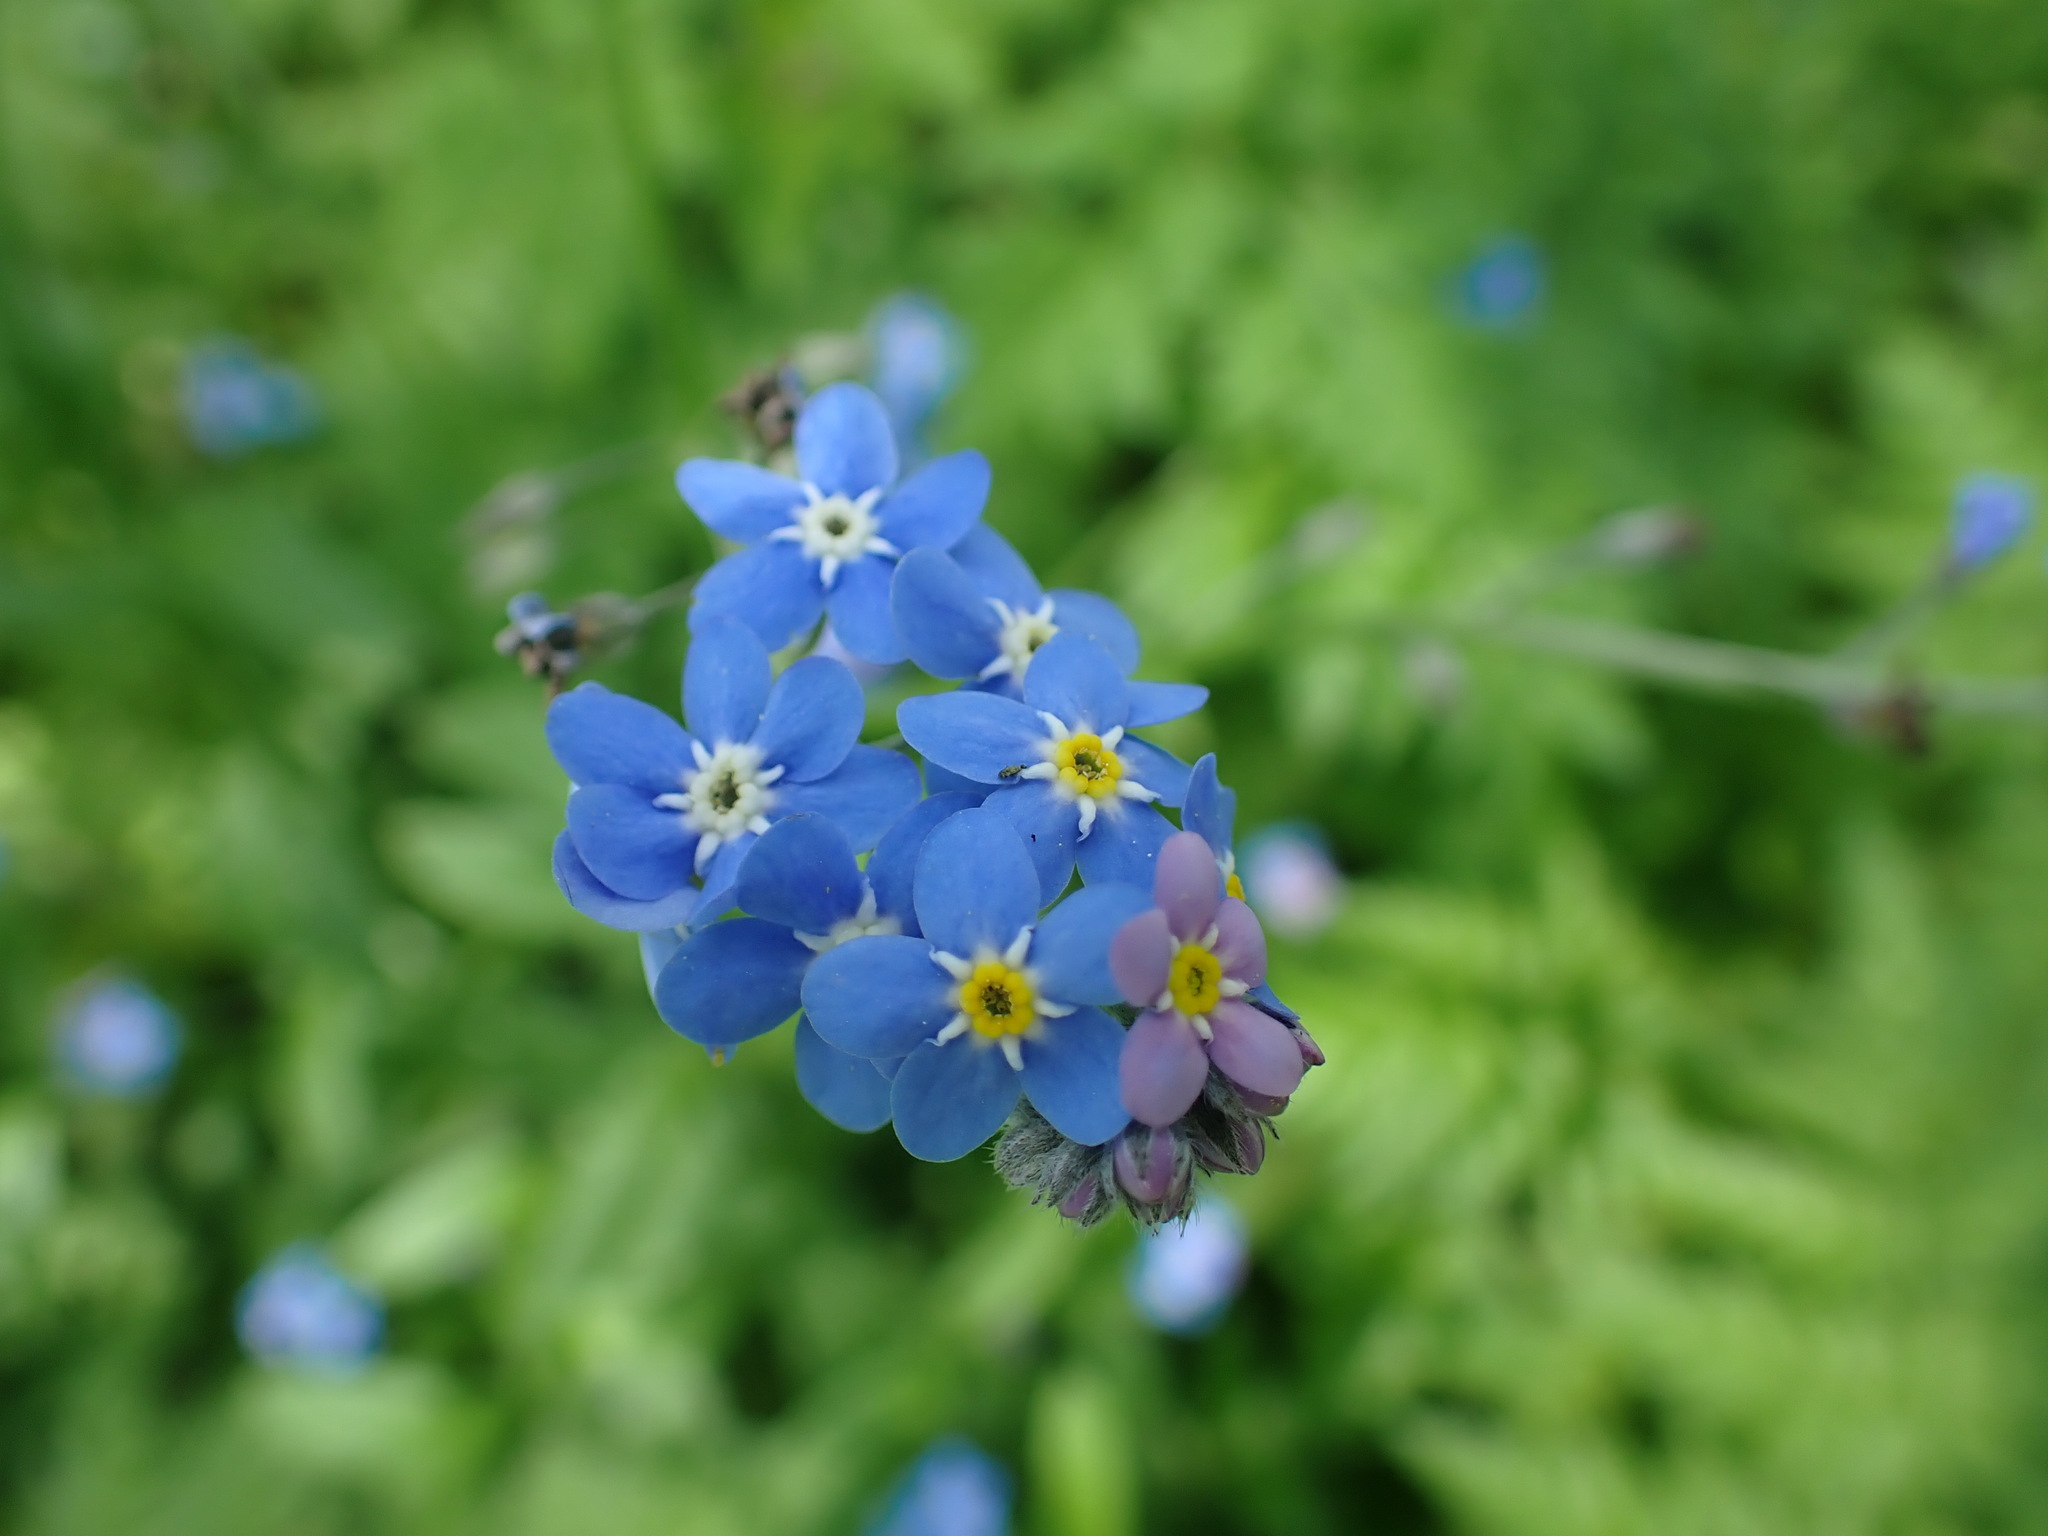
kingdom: Plantae
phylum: Tracheophyta
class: Magnoliopsida
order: Boraginales
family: Boraginaceae
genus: Myosotis
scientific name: Myosotis sylvatica
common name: Wood forget-me-not
